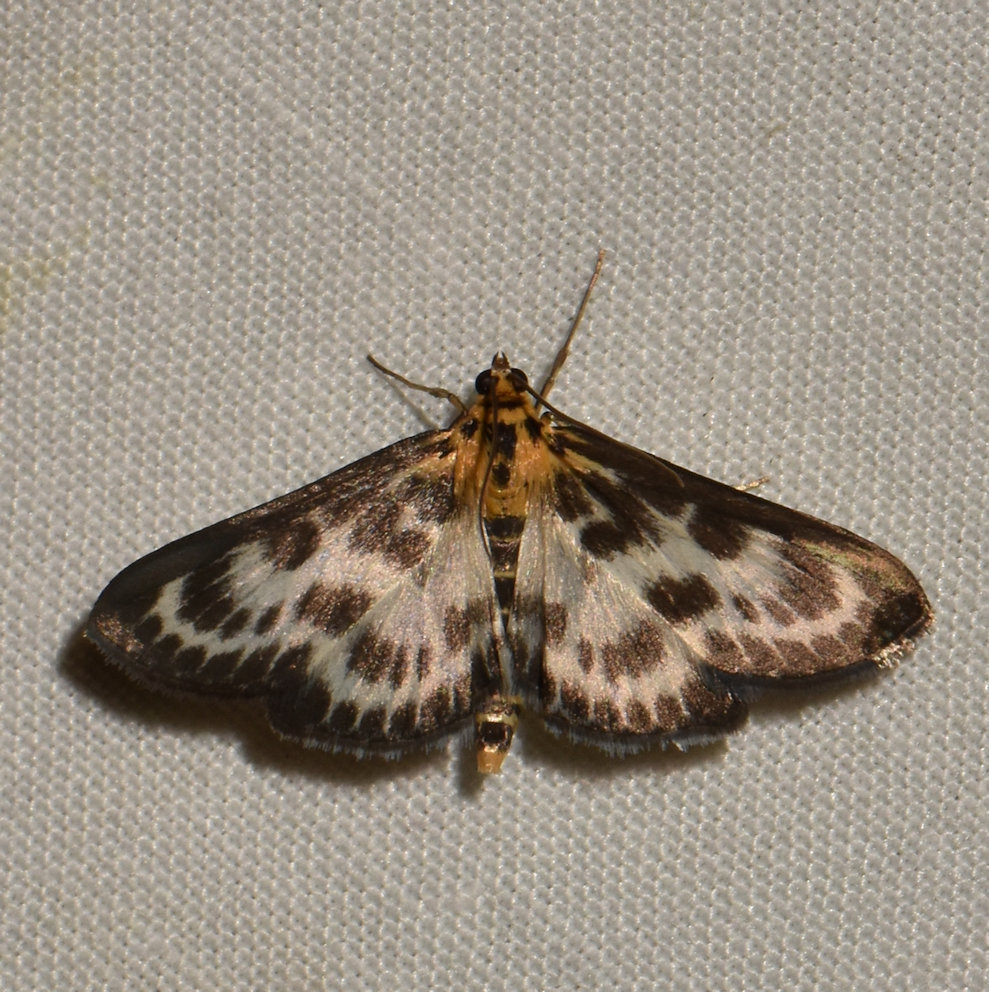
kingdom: Animalia
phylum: Arthropoda
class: Insecta
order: Lepidoptera
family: Crambidae
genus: Anania
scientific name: Anania hortulata
